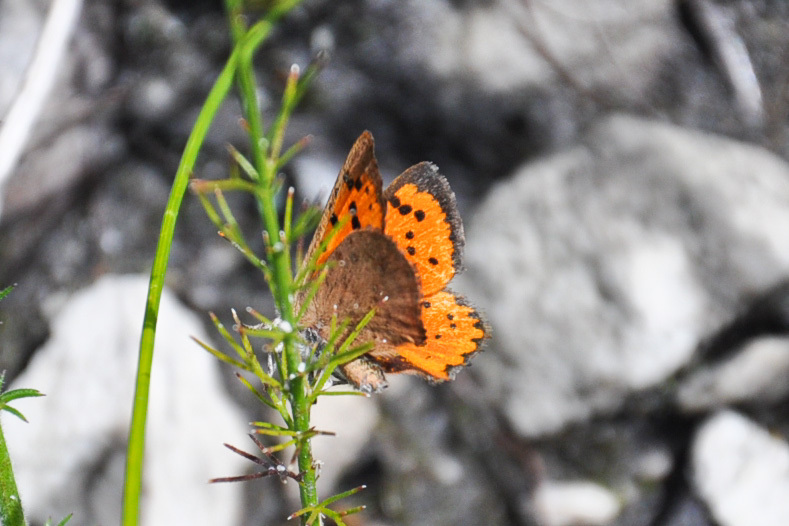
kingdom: Animalia
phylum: Arthropoda
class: Insecta
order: Lepidoptera
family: Lycaenidae
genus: Zeritis
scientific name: Zeritis chrysaor
